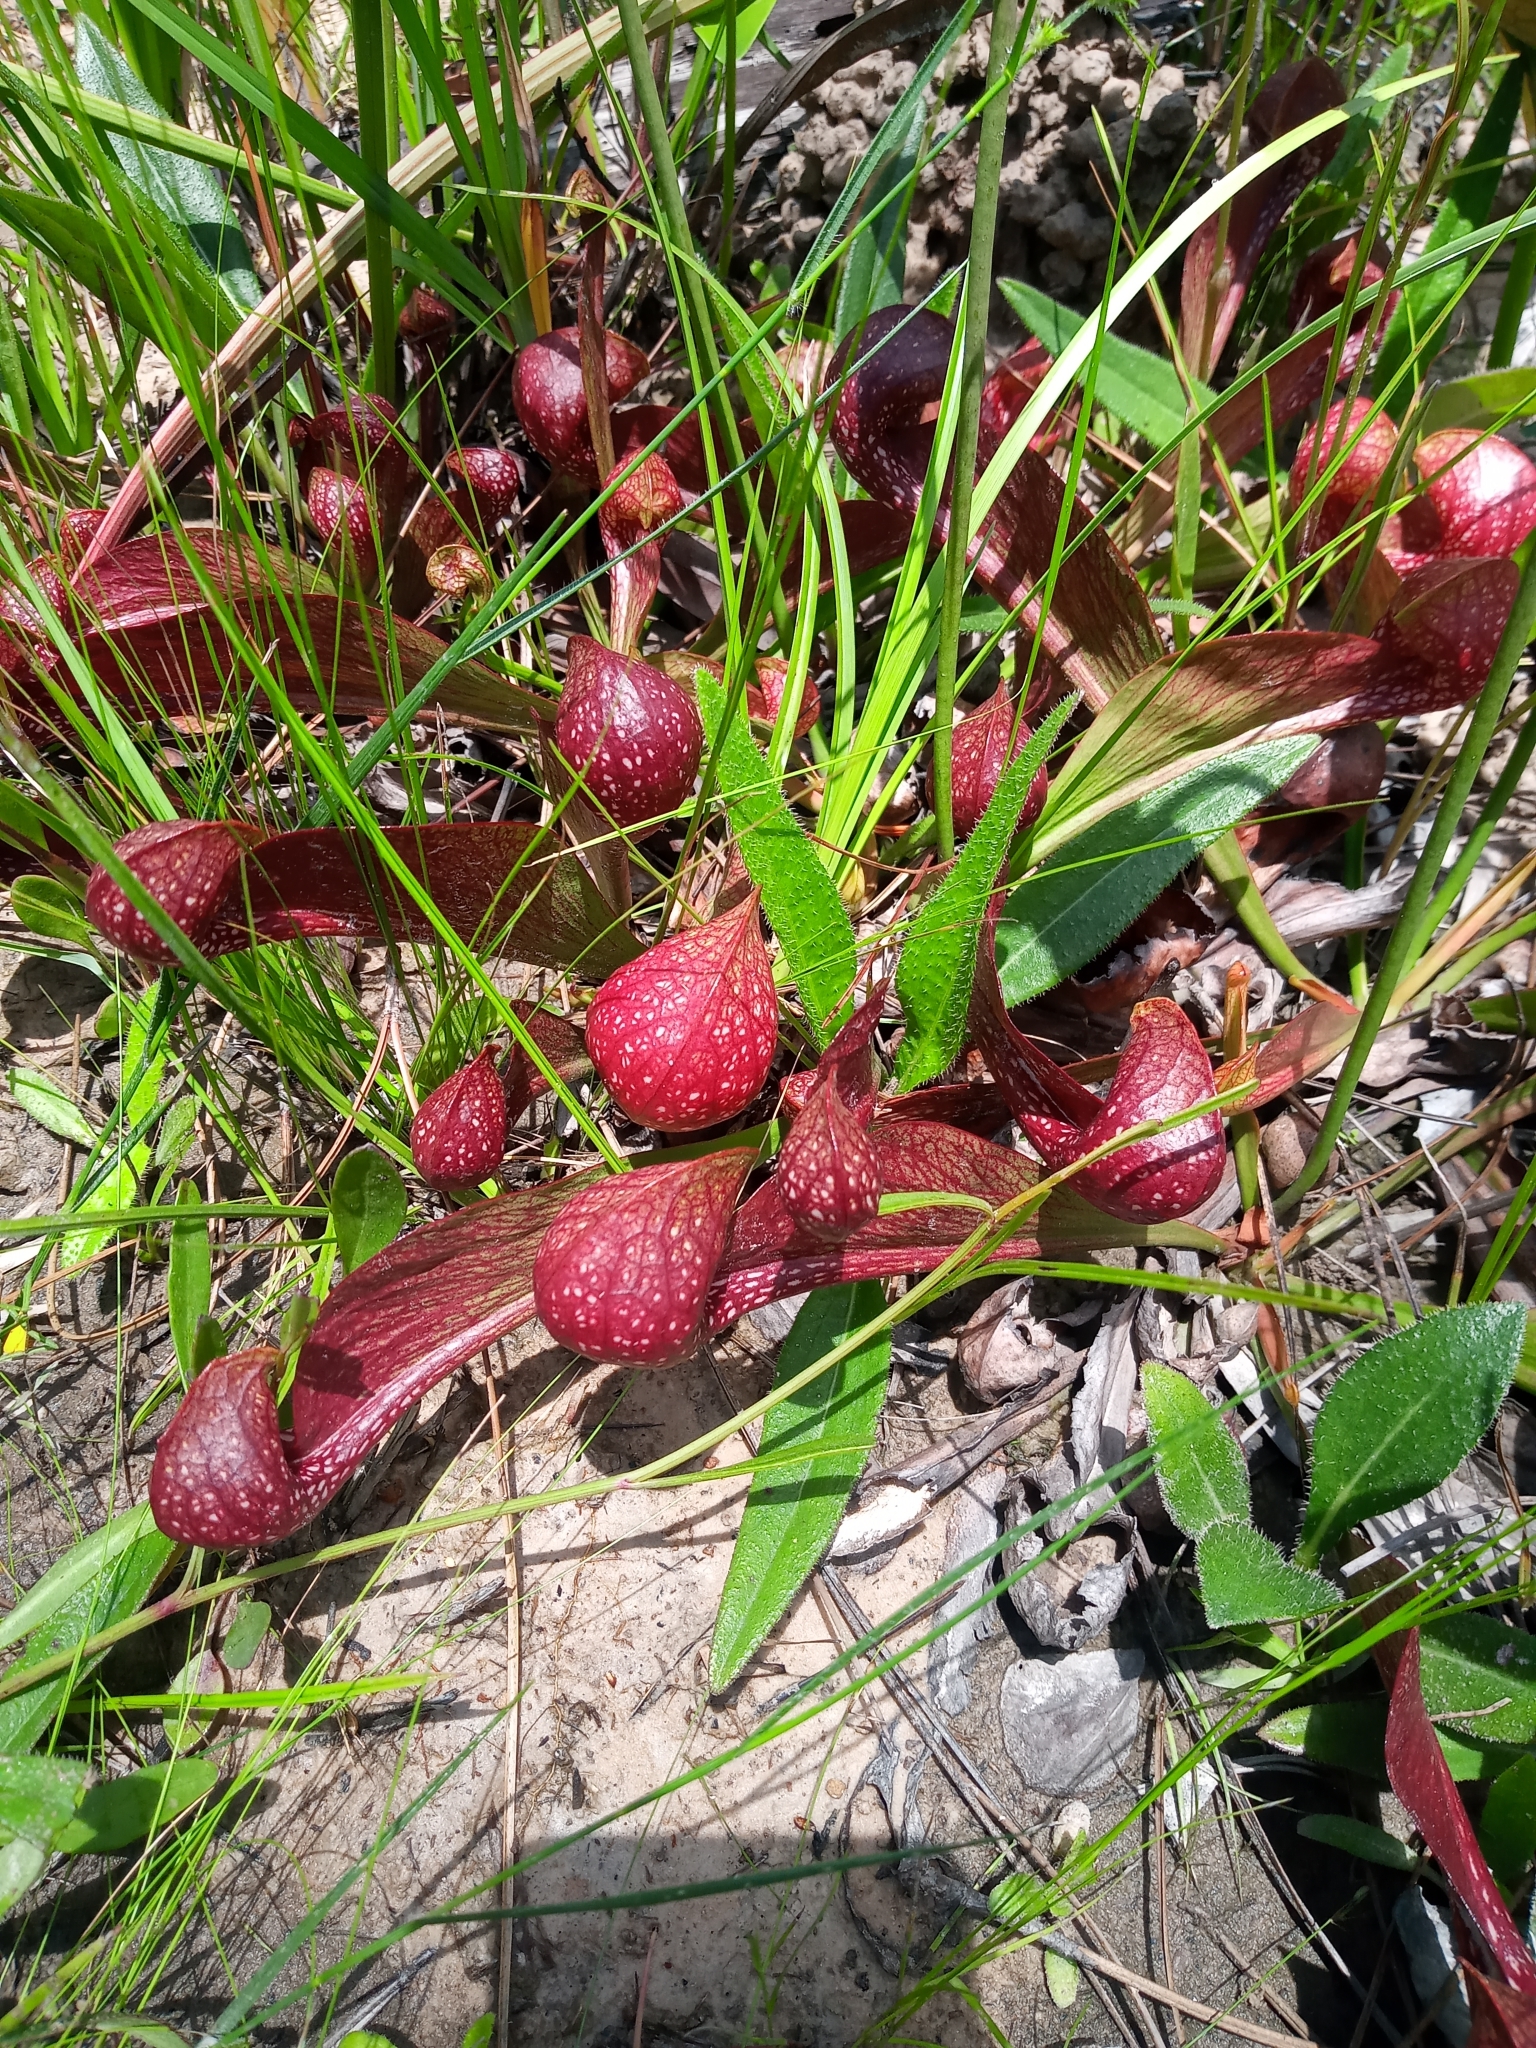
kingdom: Plantae
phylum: Tracheophyta
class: Magnoliopsida
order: Ericales
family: Sarraceniaceae
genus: Sarracenia
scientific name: Sarracenia psittacina
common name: Parrot pitcherplant
